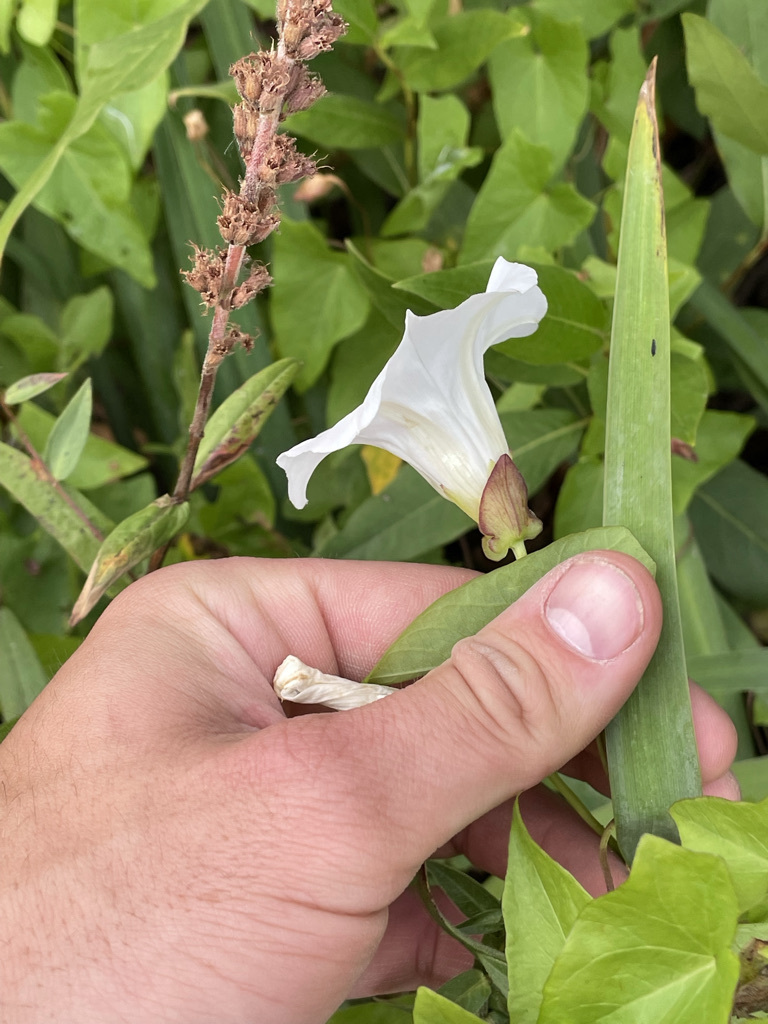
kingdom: Plantae
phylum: Tracheophyta
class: Magnoliopsida
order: Solanales
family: Convolvulaceae
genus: Calystegia
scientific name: Calystegia sepium
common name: Hedge bindweed
